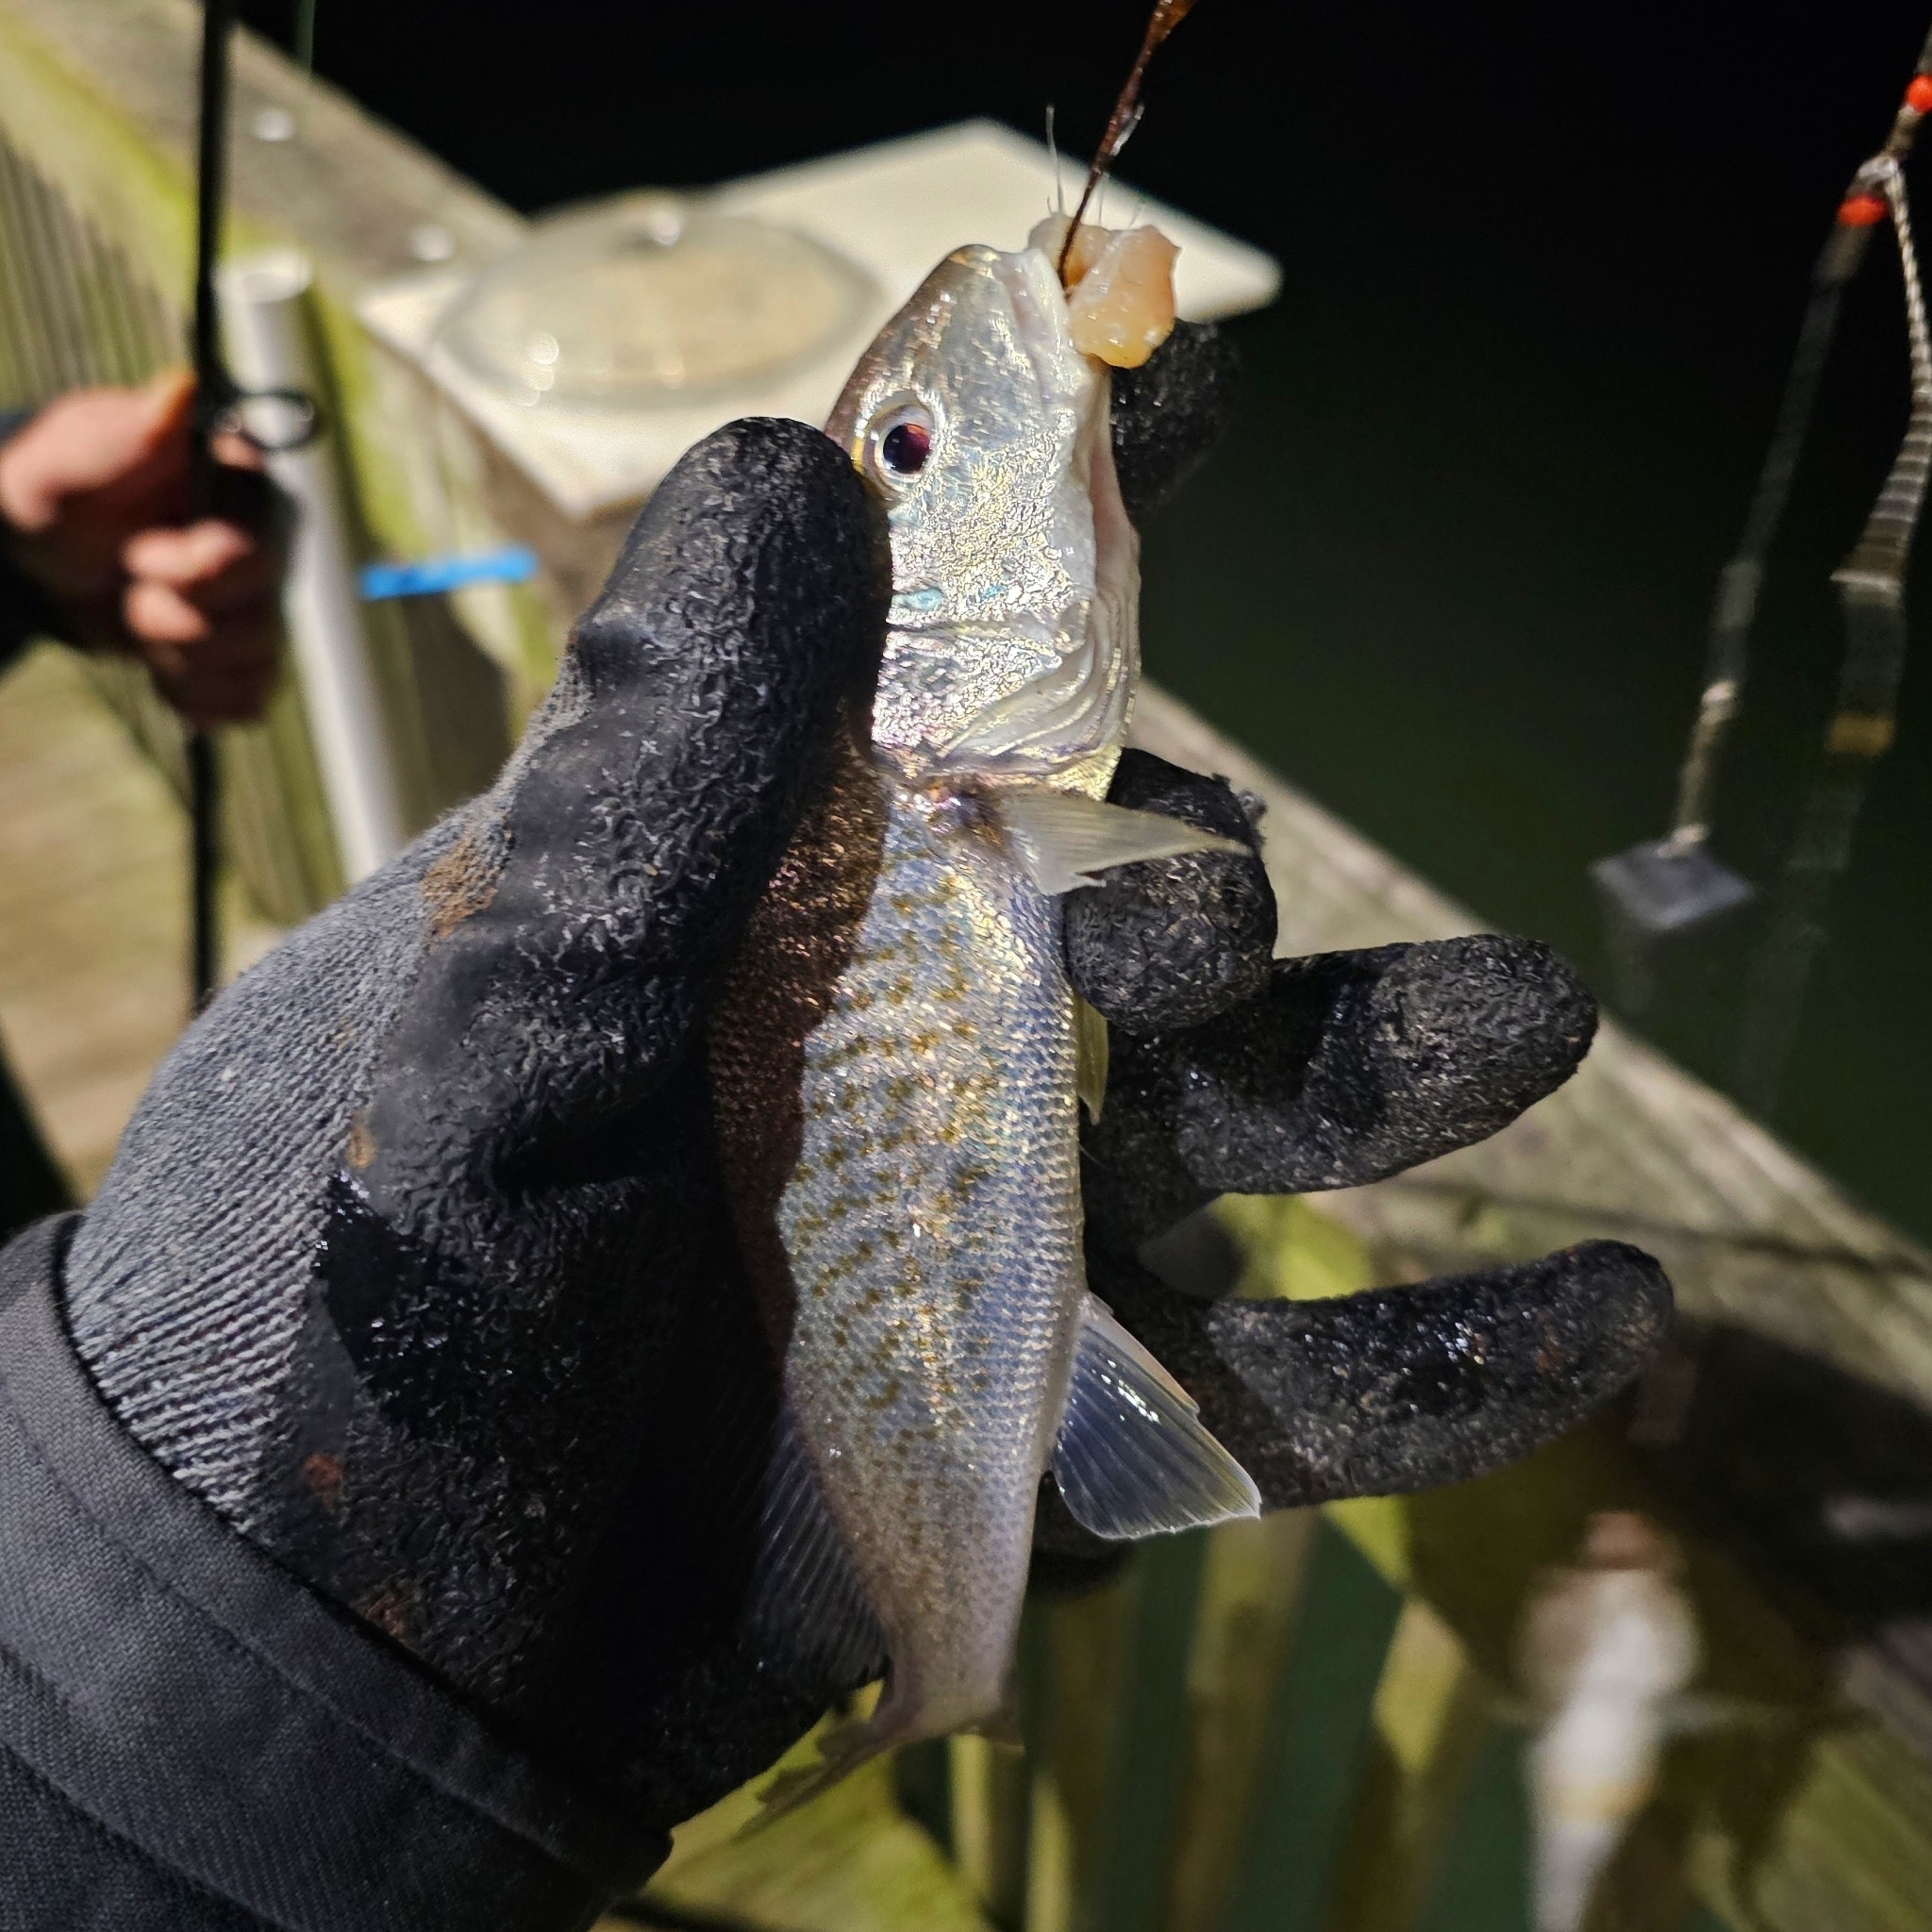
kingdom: Animalia
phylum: Chordata
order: Perciformes
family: Sciaenidae
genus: Micropogonias
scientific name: Micropogonias undulatus
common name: Atlantic croaker
